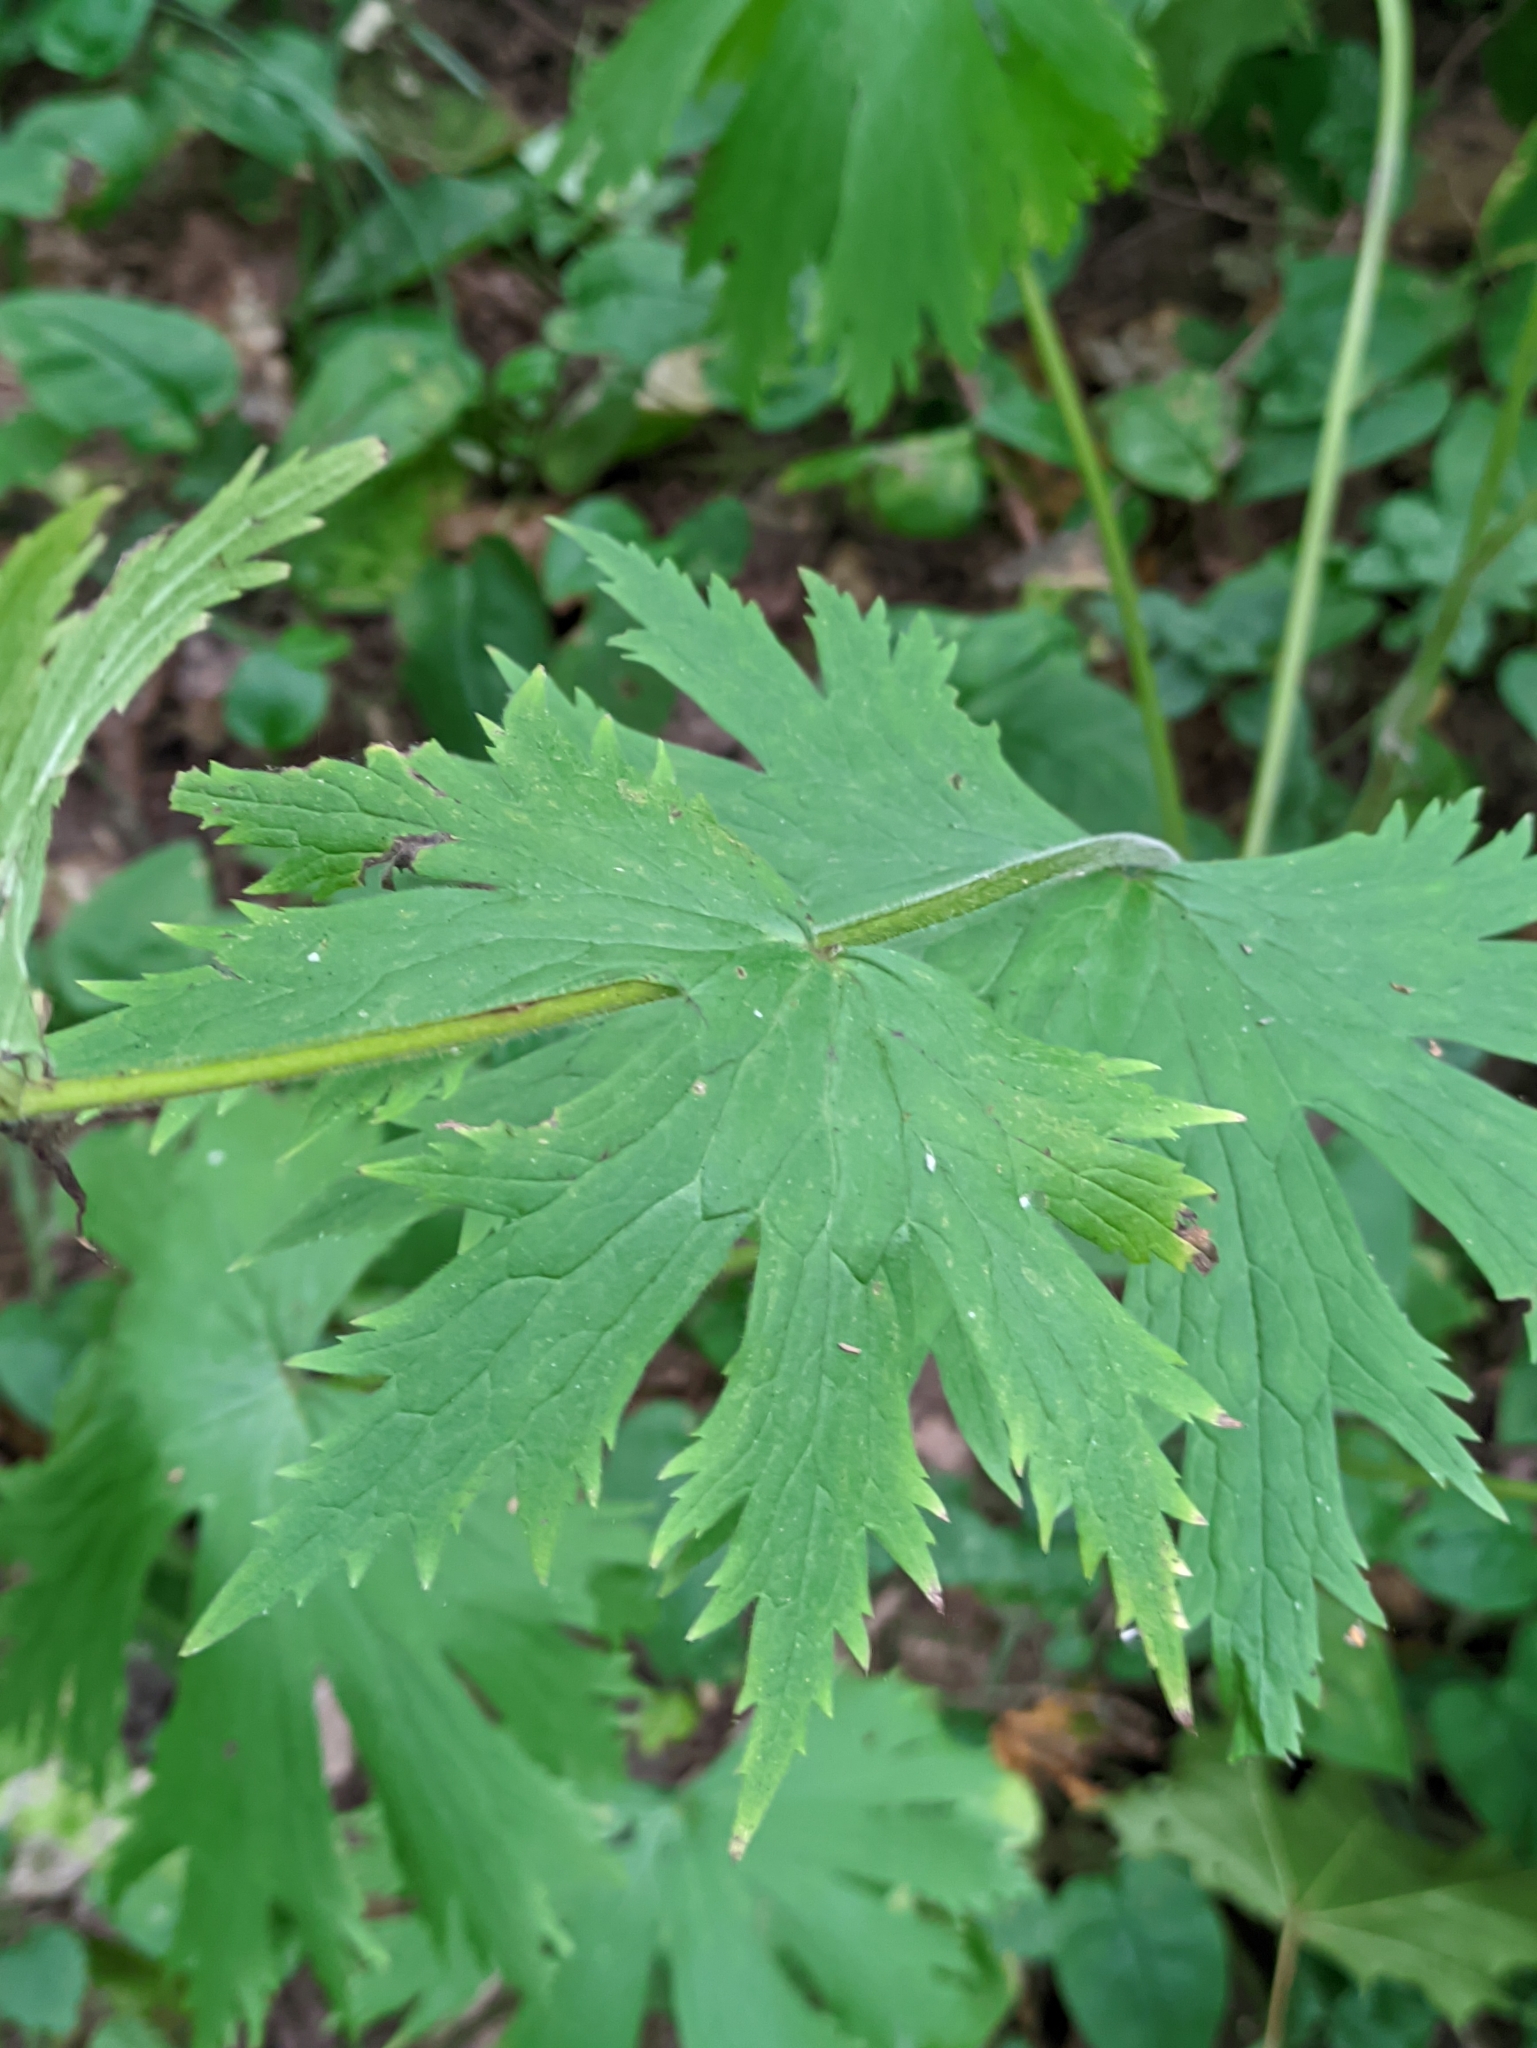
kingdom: Plantae
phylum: Tracheophyta
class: Magnoliopsida
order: Ranunculales
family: Ranunculaceae
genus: Aconitum
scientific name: Aconitum septentrionale
